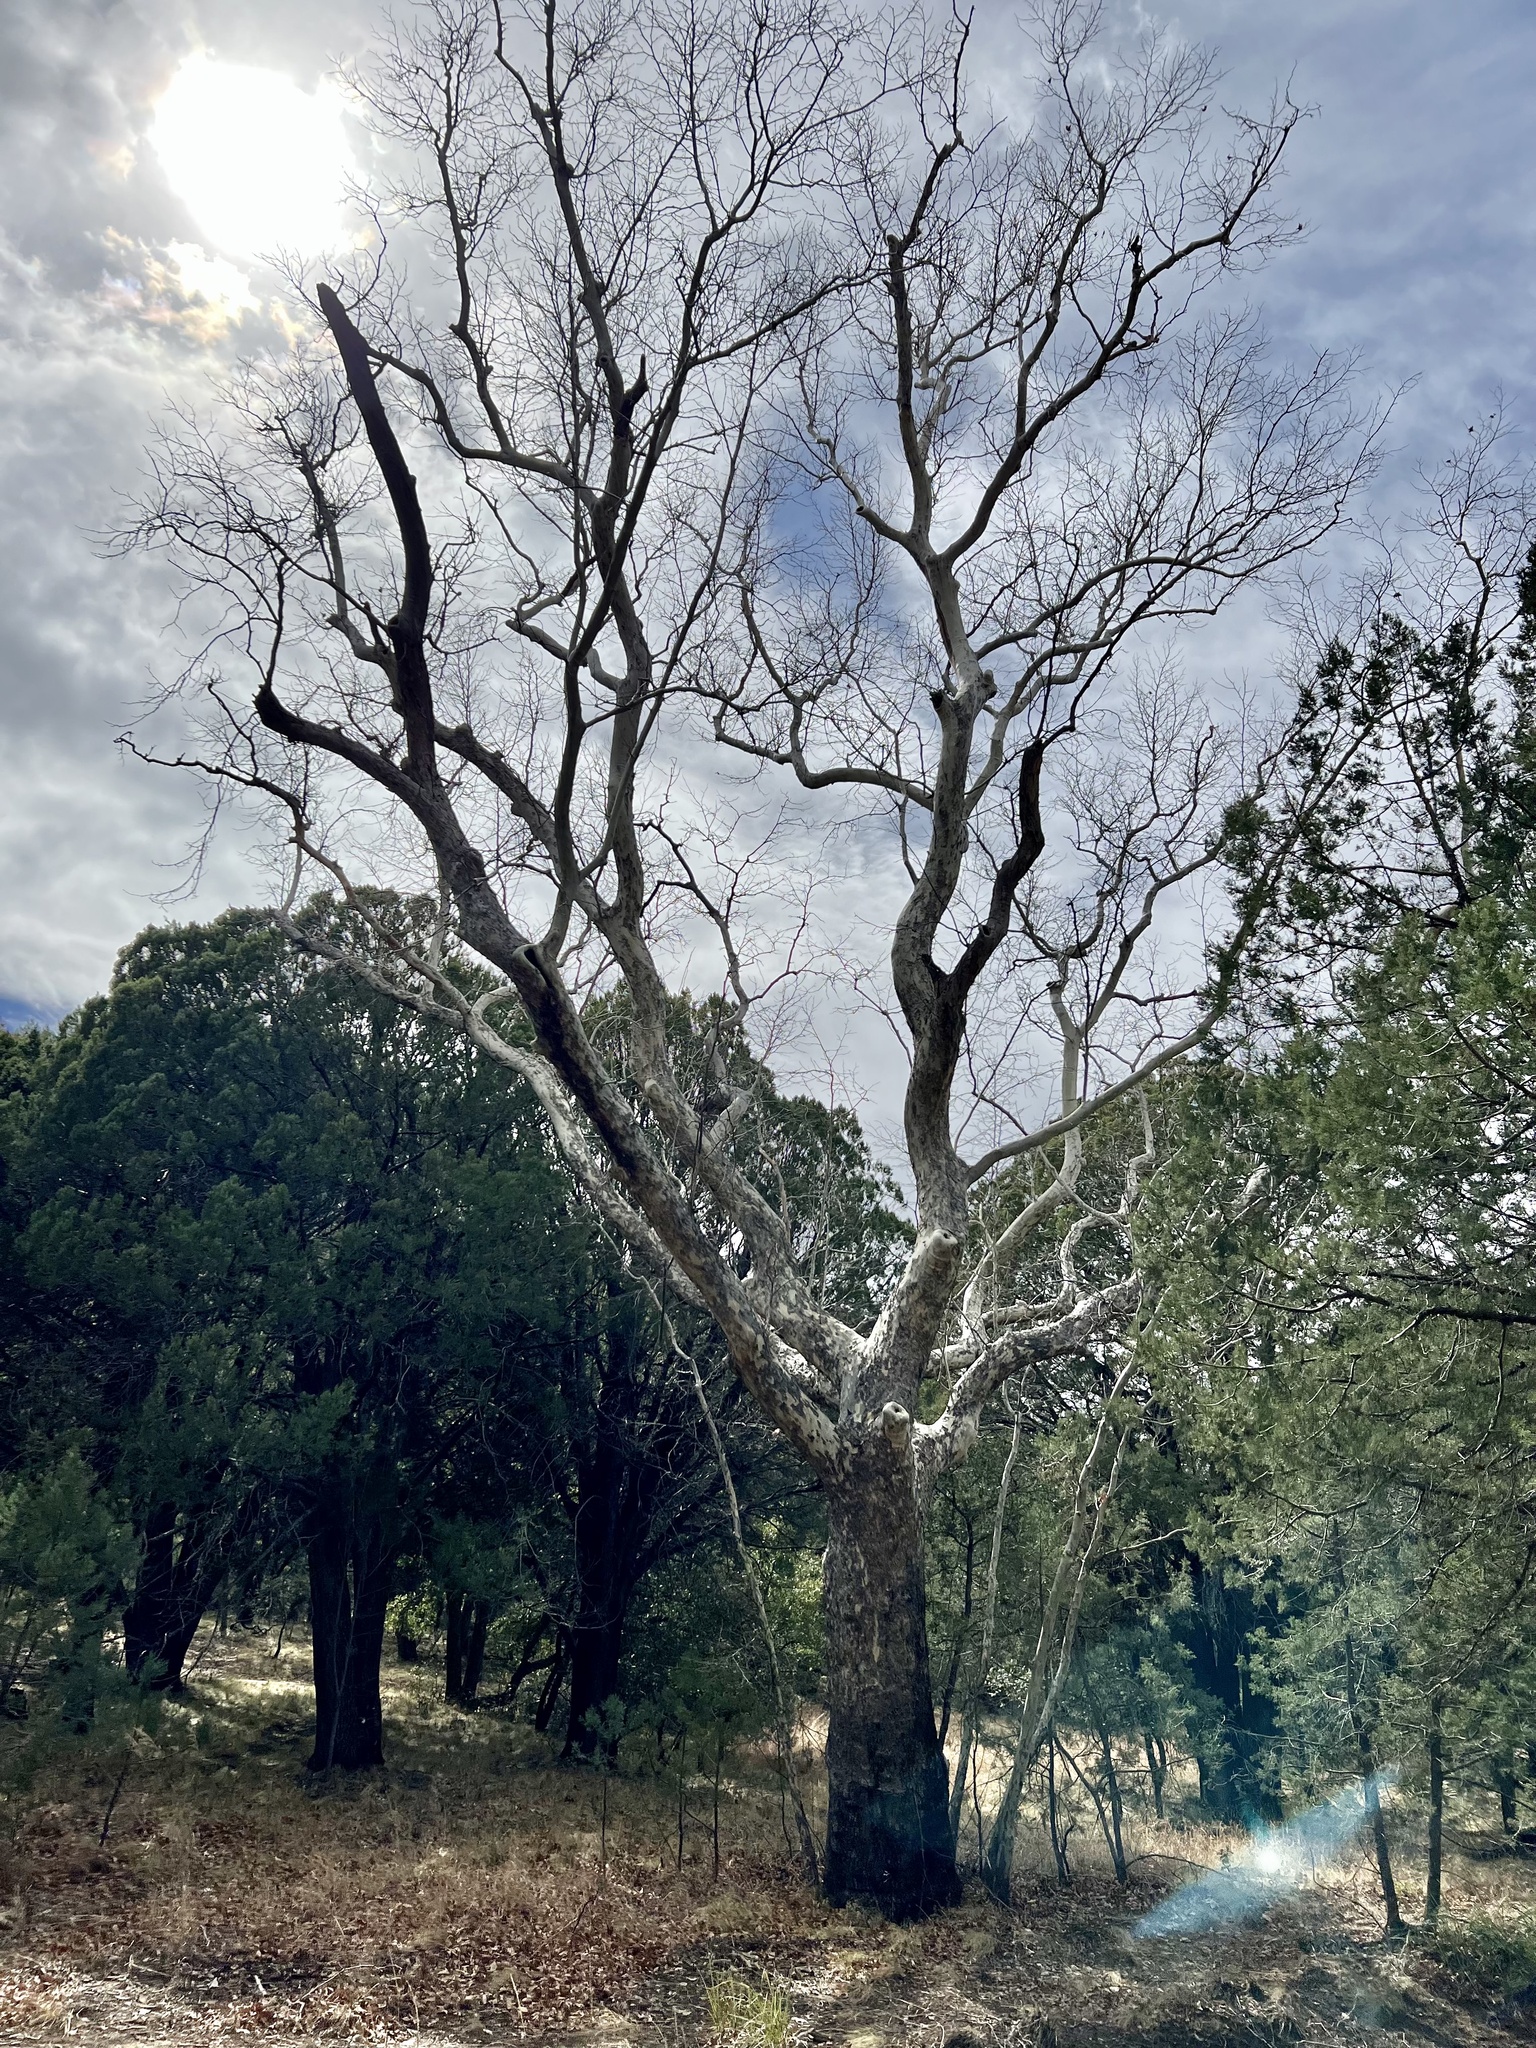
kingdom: Plantae
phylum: Tracheophyta
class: Magnoliopsida
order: Proteales
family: Platanaceae
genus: Platanus
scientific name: Platanus wrightii
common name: Arizona sycamore
